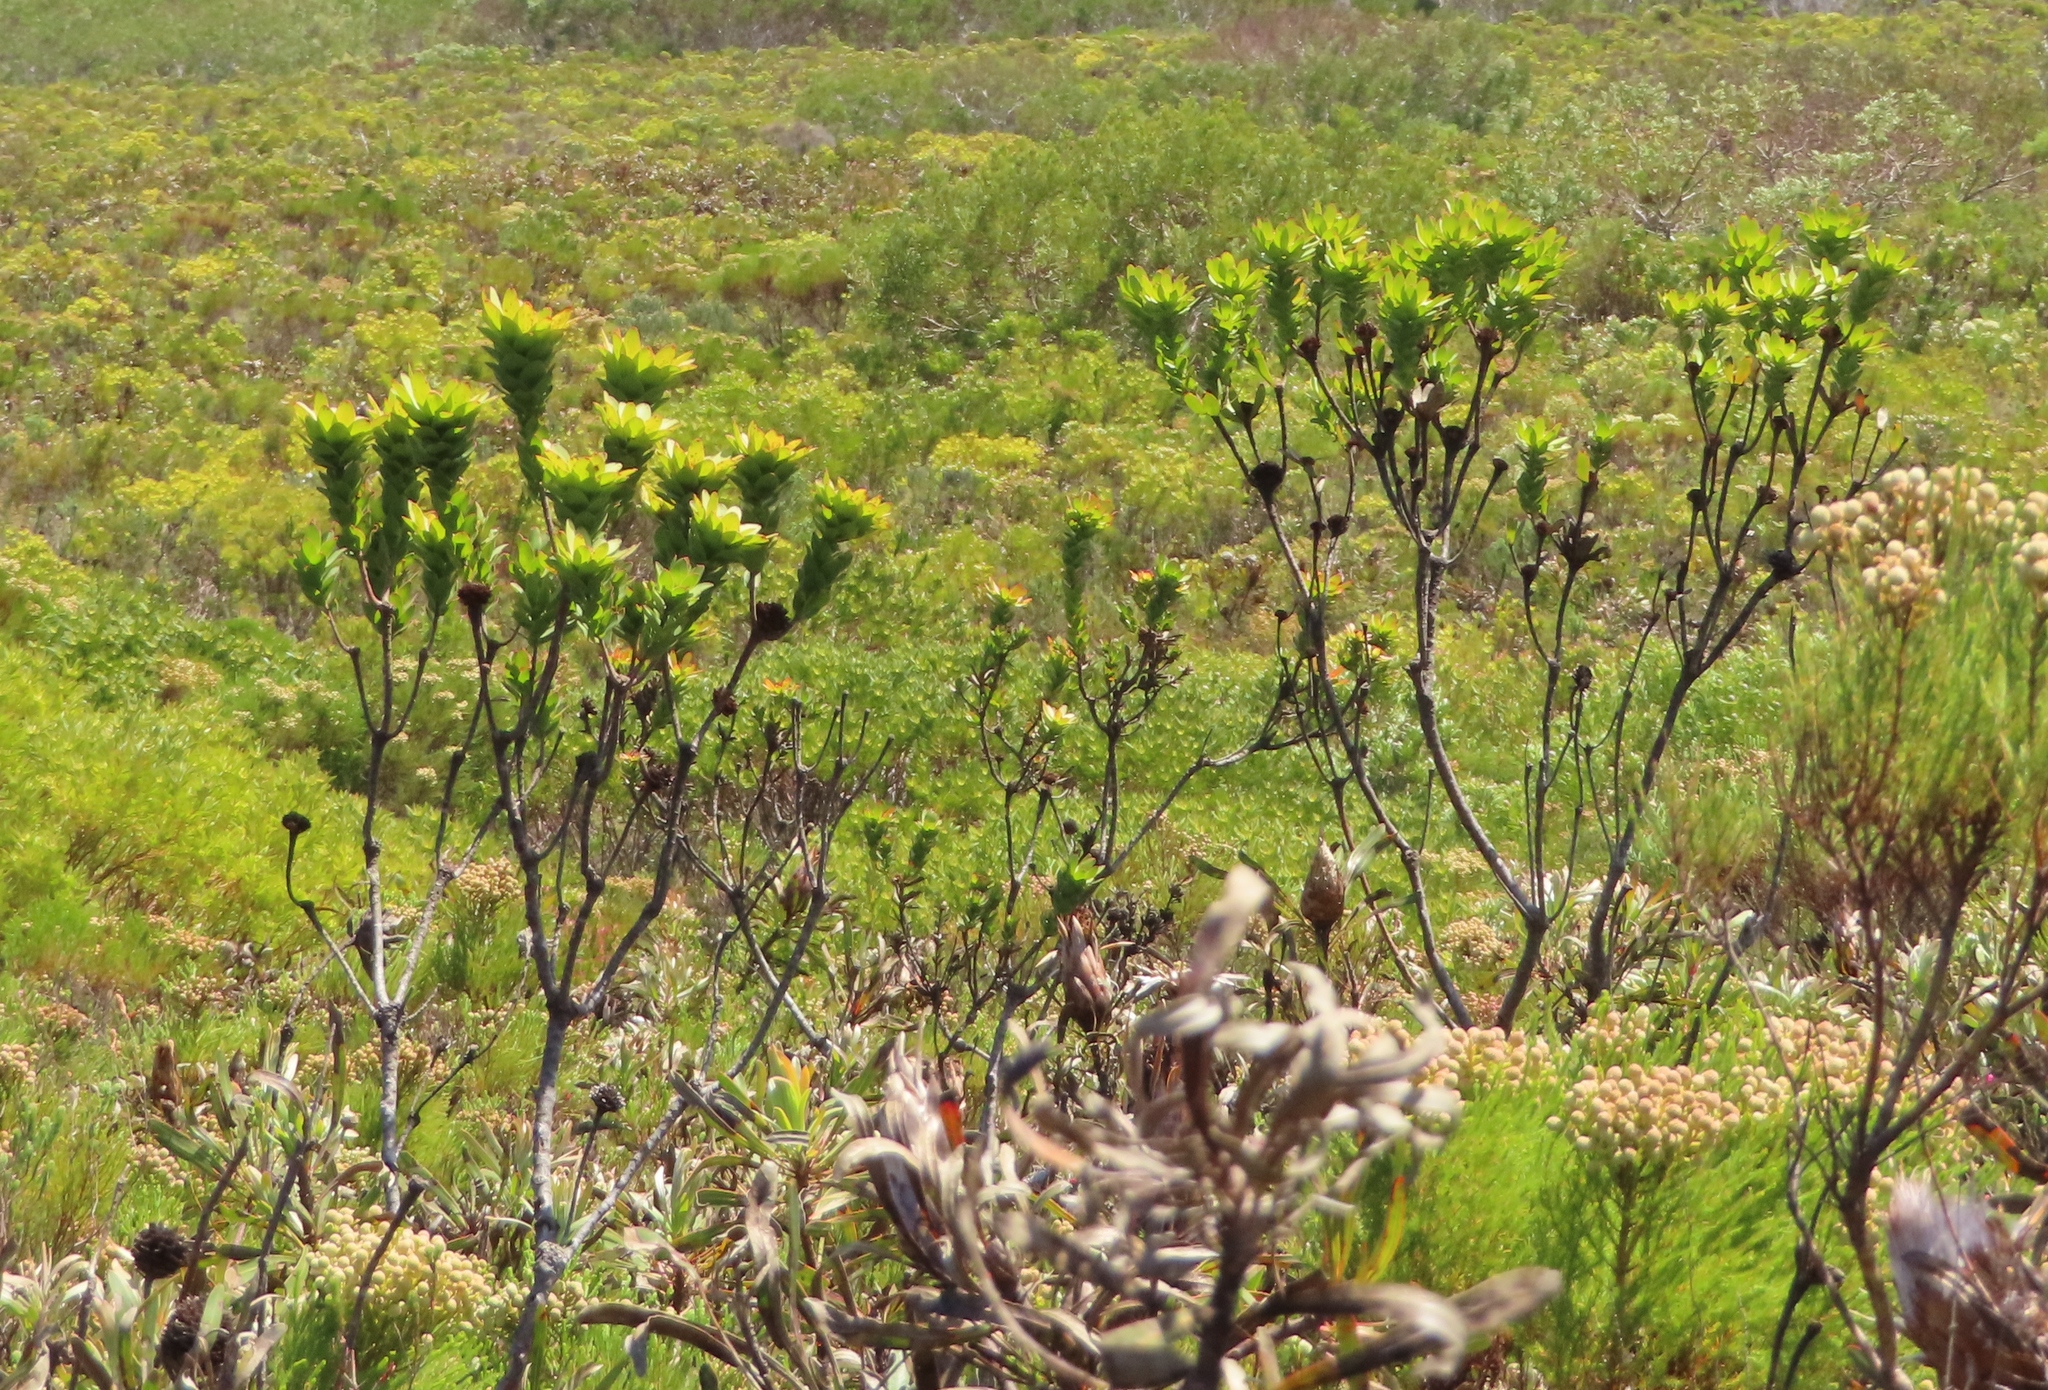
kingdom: Plantae
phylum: Tracheophyta
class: Magnoliopsida
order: Proteales
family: Proteaceae
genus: Leucadendron
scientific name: Leucadendron elimense
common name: Elim conebush
